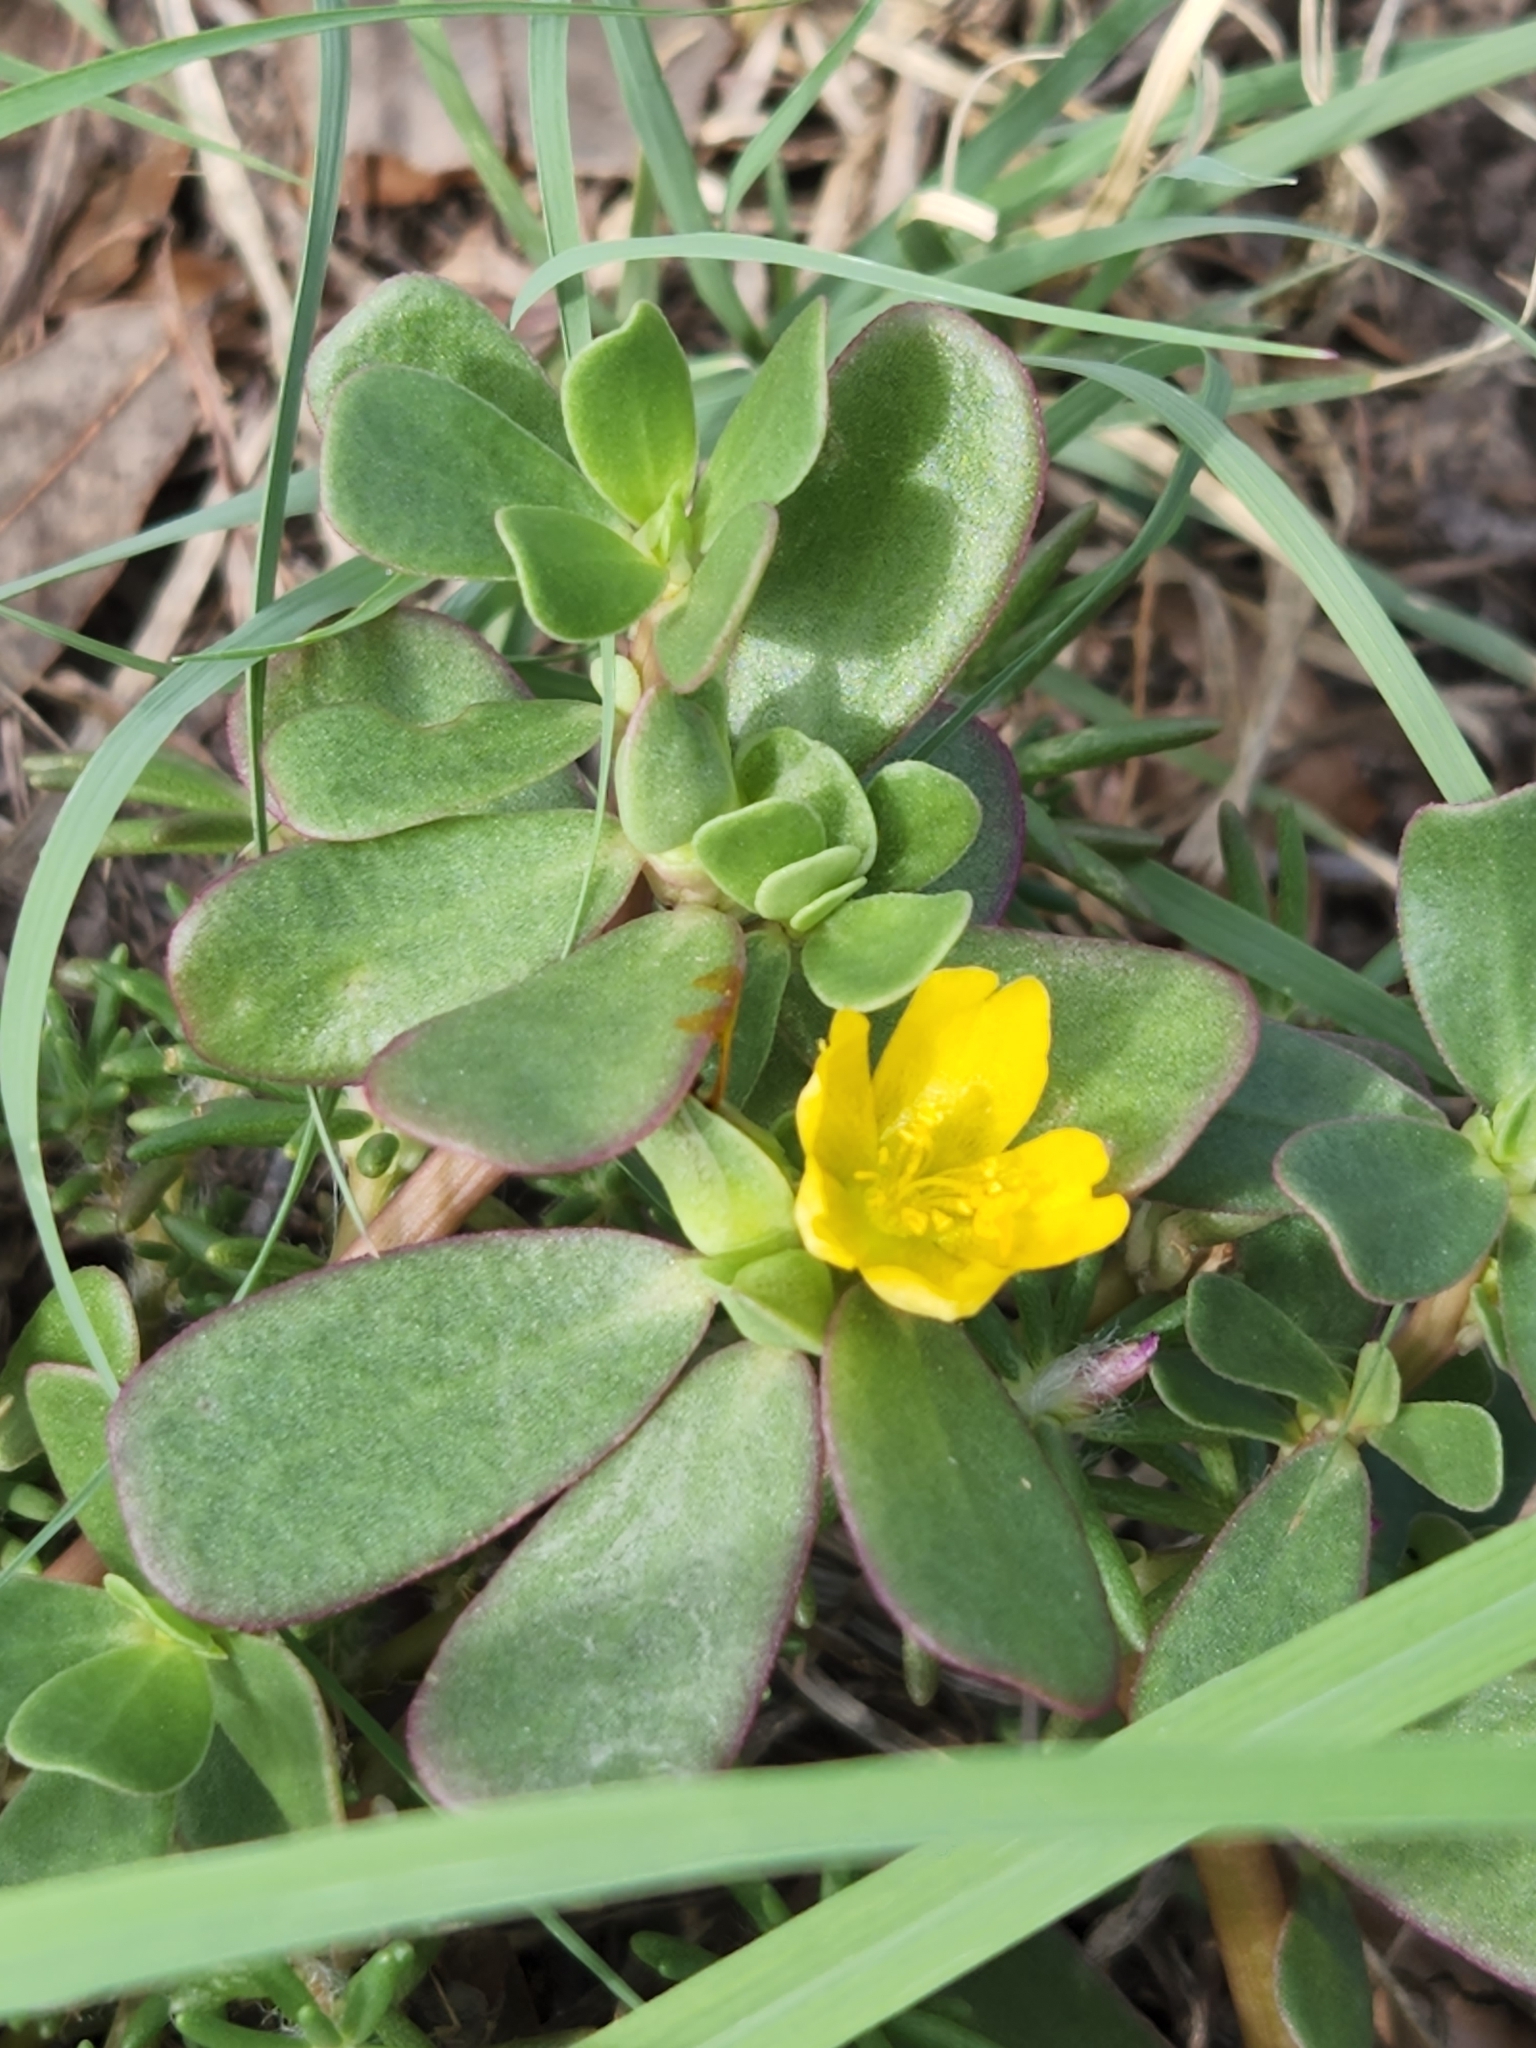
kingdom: Plantae
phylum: Tracheophyta
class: Magnoliopsida
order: Caryophyllales
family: Portulacaceae
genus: Portulaca
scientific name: Portulaca oleracea
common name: Common purslane
